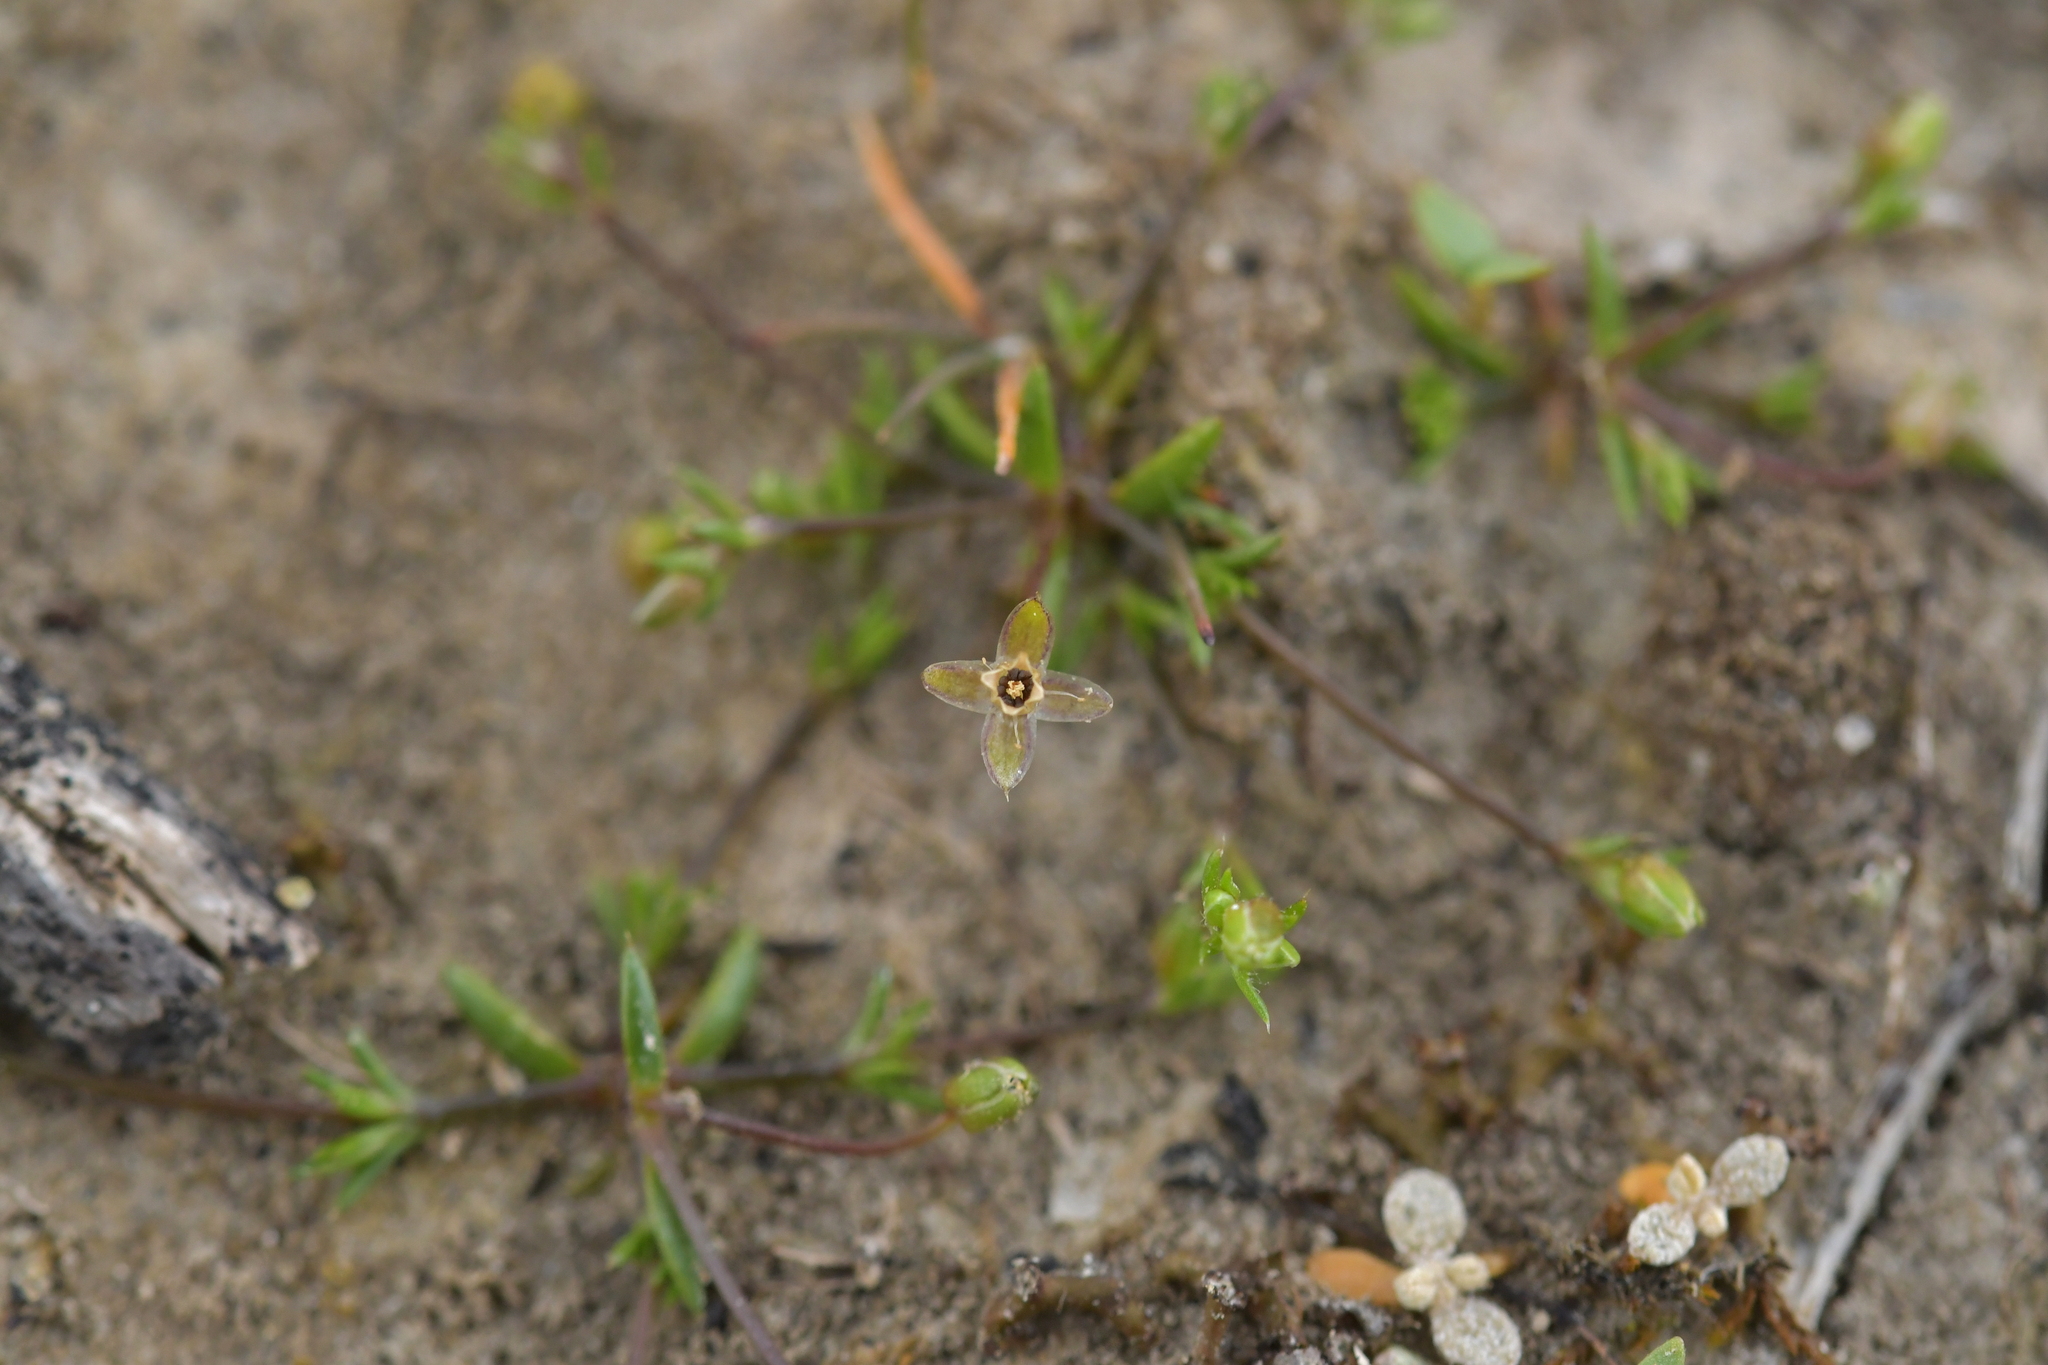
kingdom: Plantae
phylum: Tracheophyta
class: Magnoliopsida
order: Caryophyllales
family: Caryophyllaceae
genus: Sagina
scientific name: Sagina apetala
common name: Annual pearlwort
